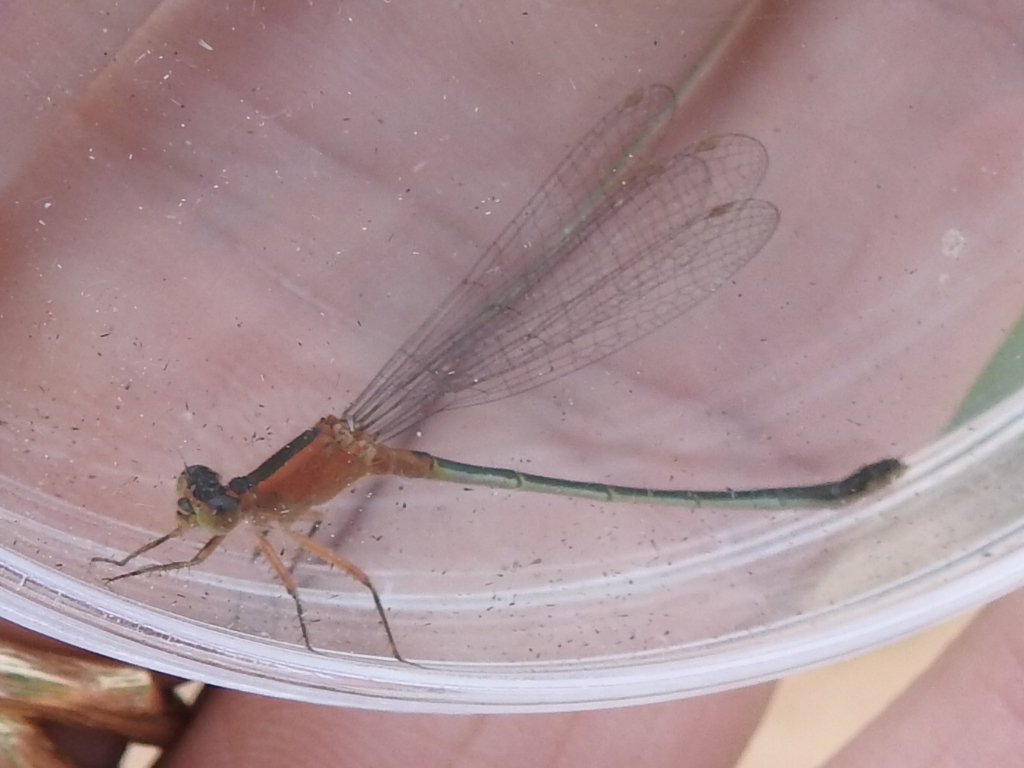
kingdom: Animalia
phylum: Arthropoda
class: Insecta
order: Odonata
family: Coenagrionidae
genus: Ischnura
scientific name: Ischnura ramburii
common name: Rambur's forktail
